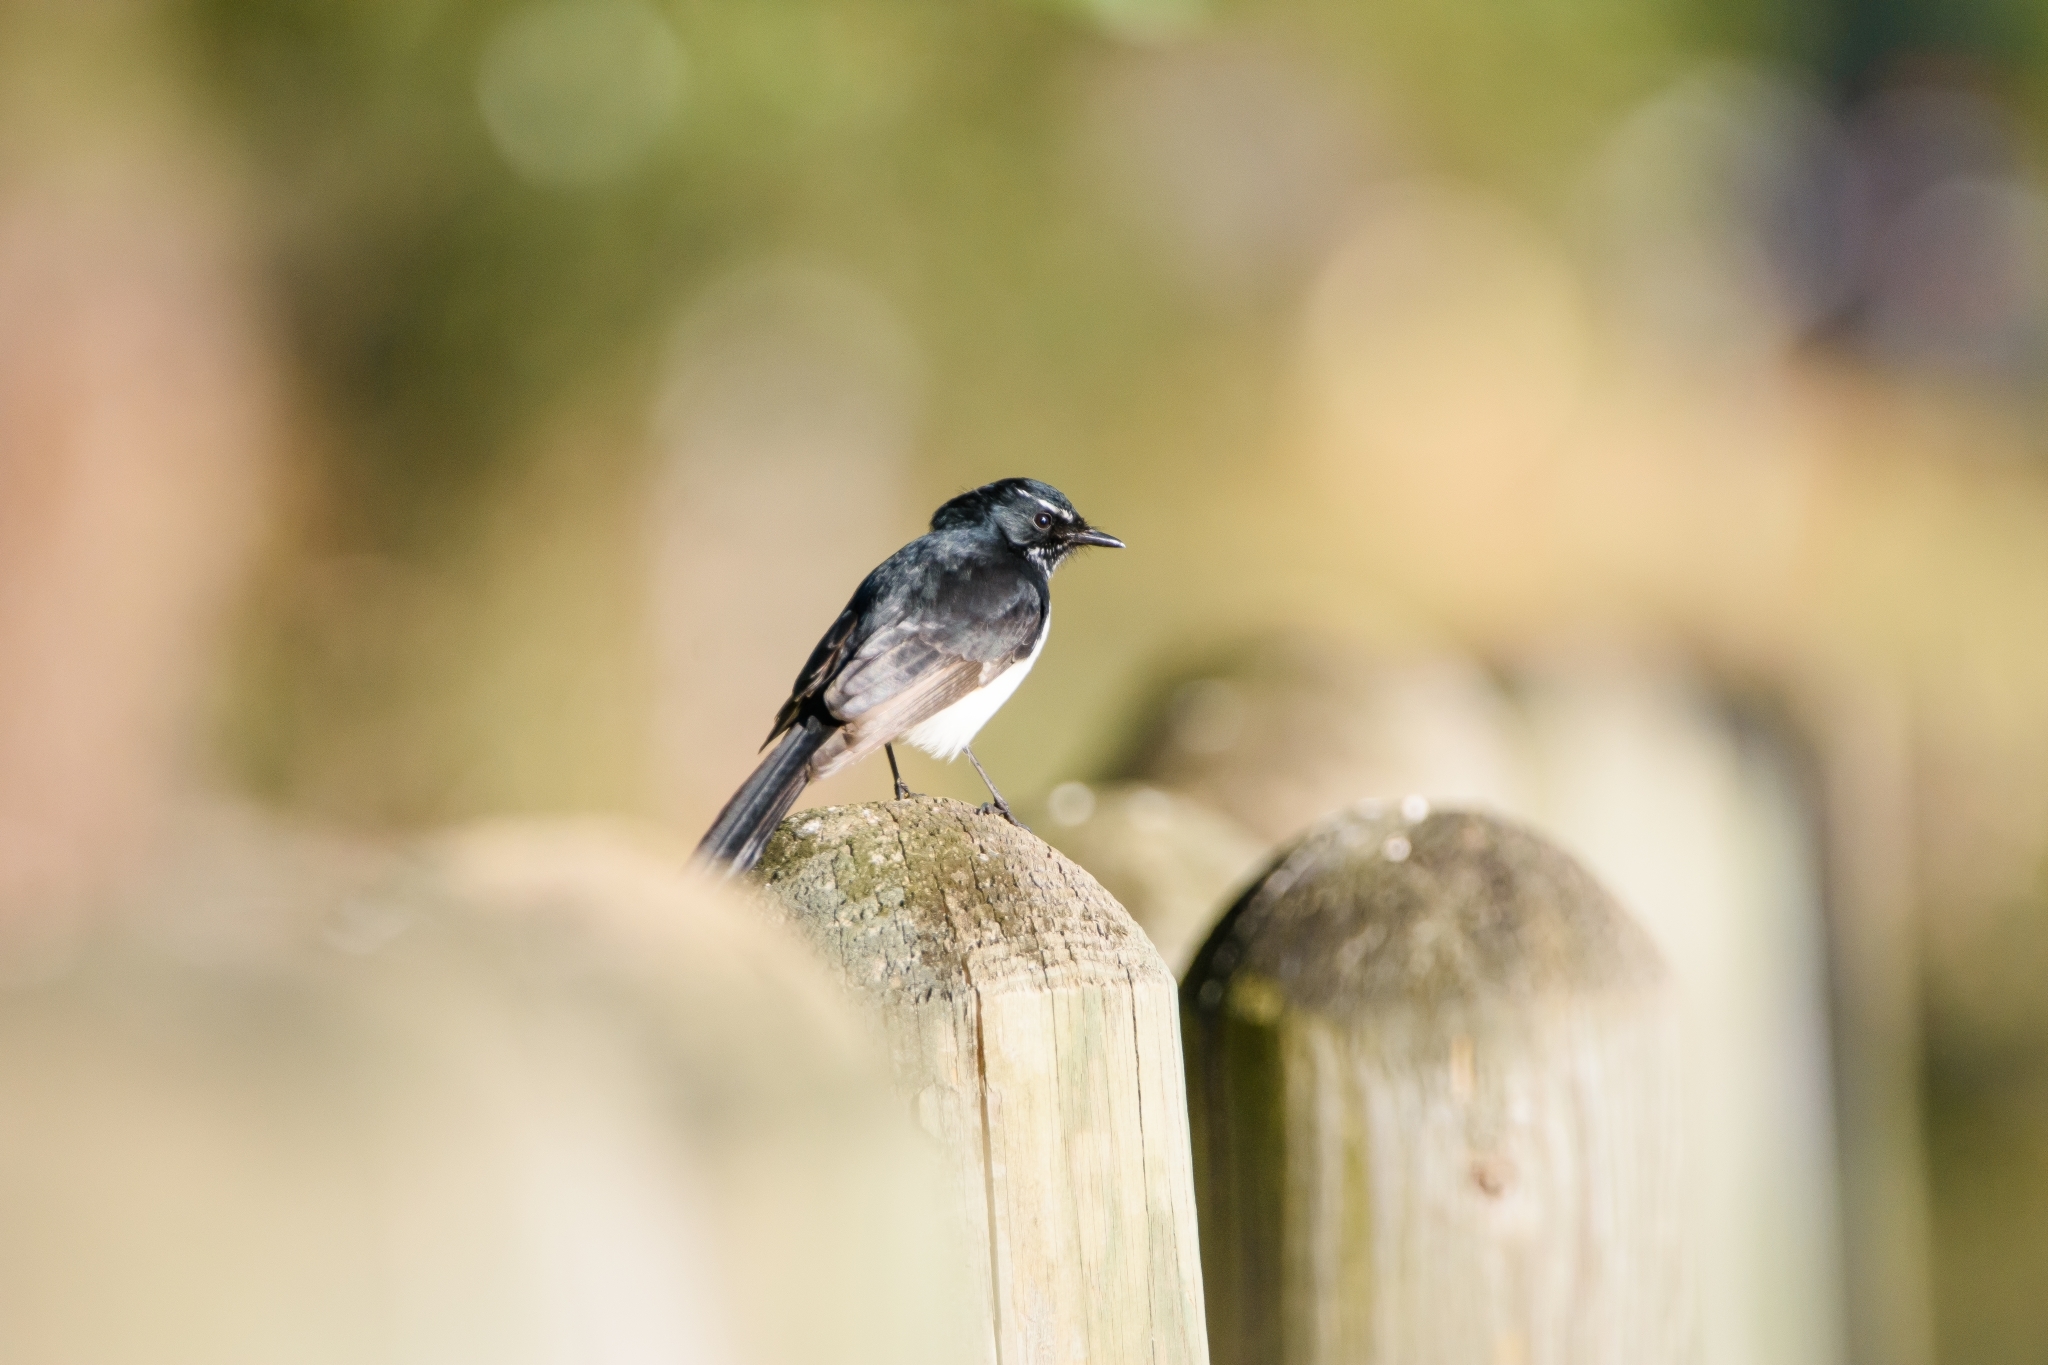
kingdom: Animalia
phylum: Chordata
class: Aves
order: Passeriformes
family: Rhipiduridae
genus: Rhipidura
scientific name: Rhipidura leucophrys
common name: Willie wagtail
